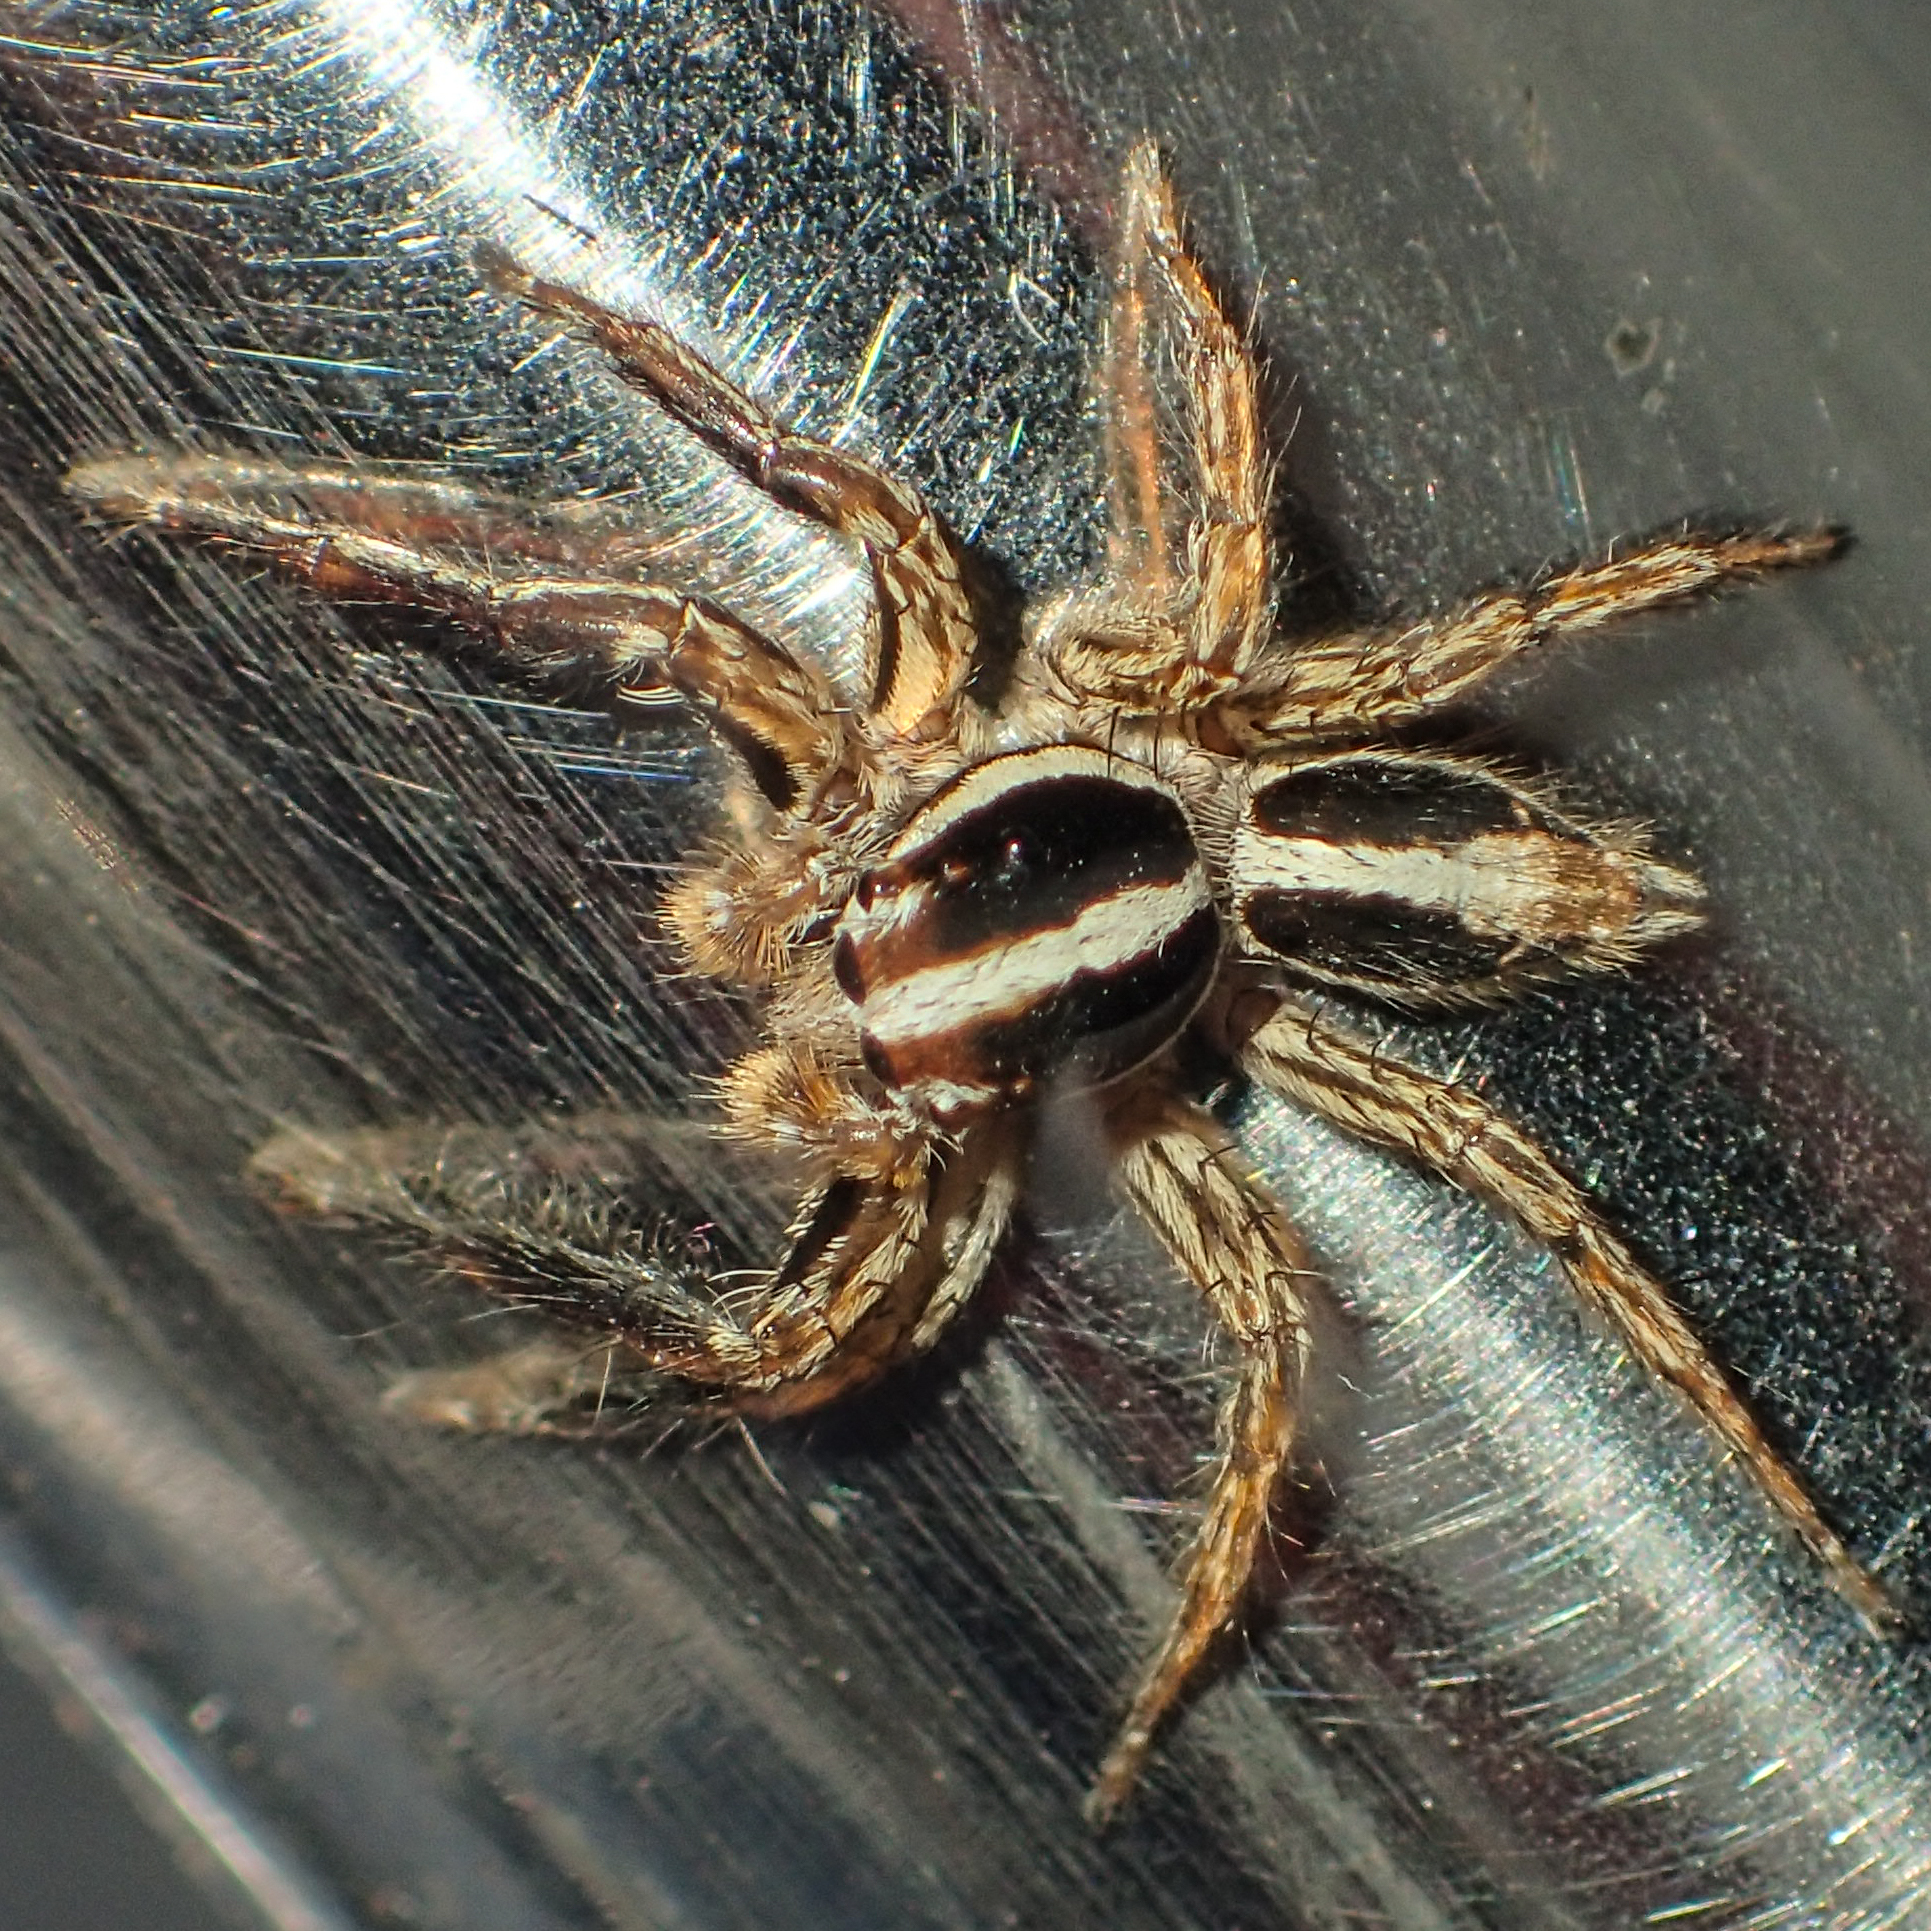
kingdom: Animalia
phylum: Arthropoda
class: Arachnida
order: Araneae
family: Salticidae
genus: Plexippus
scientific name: Plexippus paykulli
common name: Pantropical jumper
